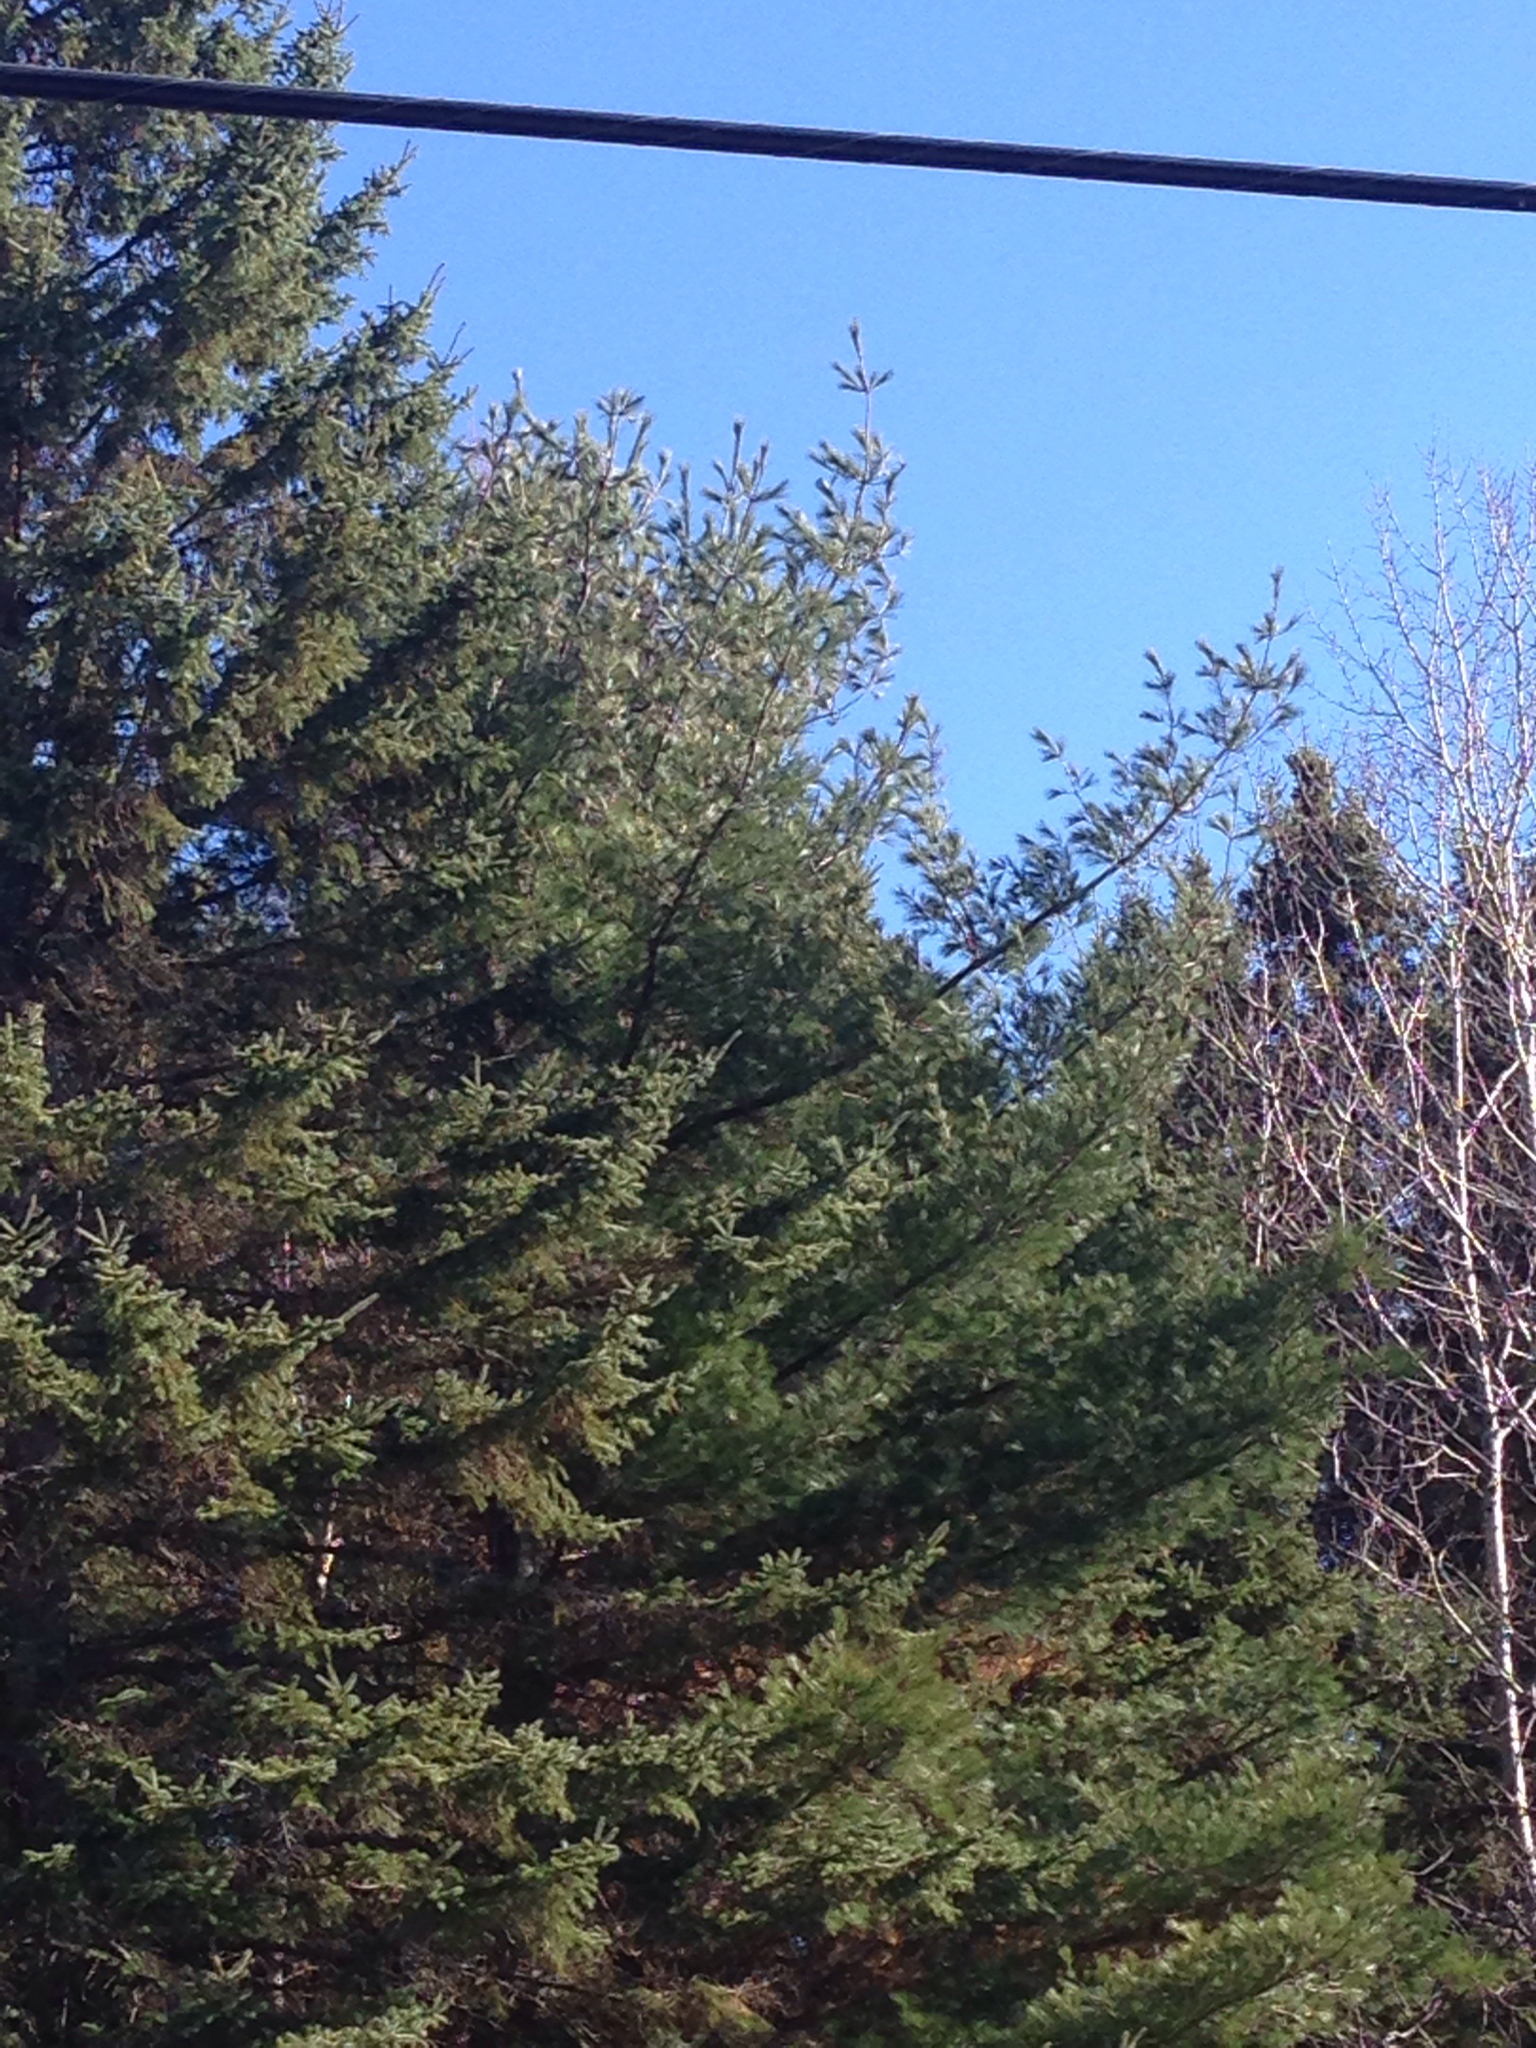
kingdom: Plantae
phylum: Tracheophyta
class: Pinopsida
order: Pinales
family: Pinaceae
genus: Pinus
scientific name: Pinus strobus
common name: Weymouth pine
